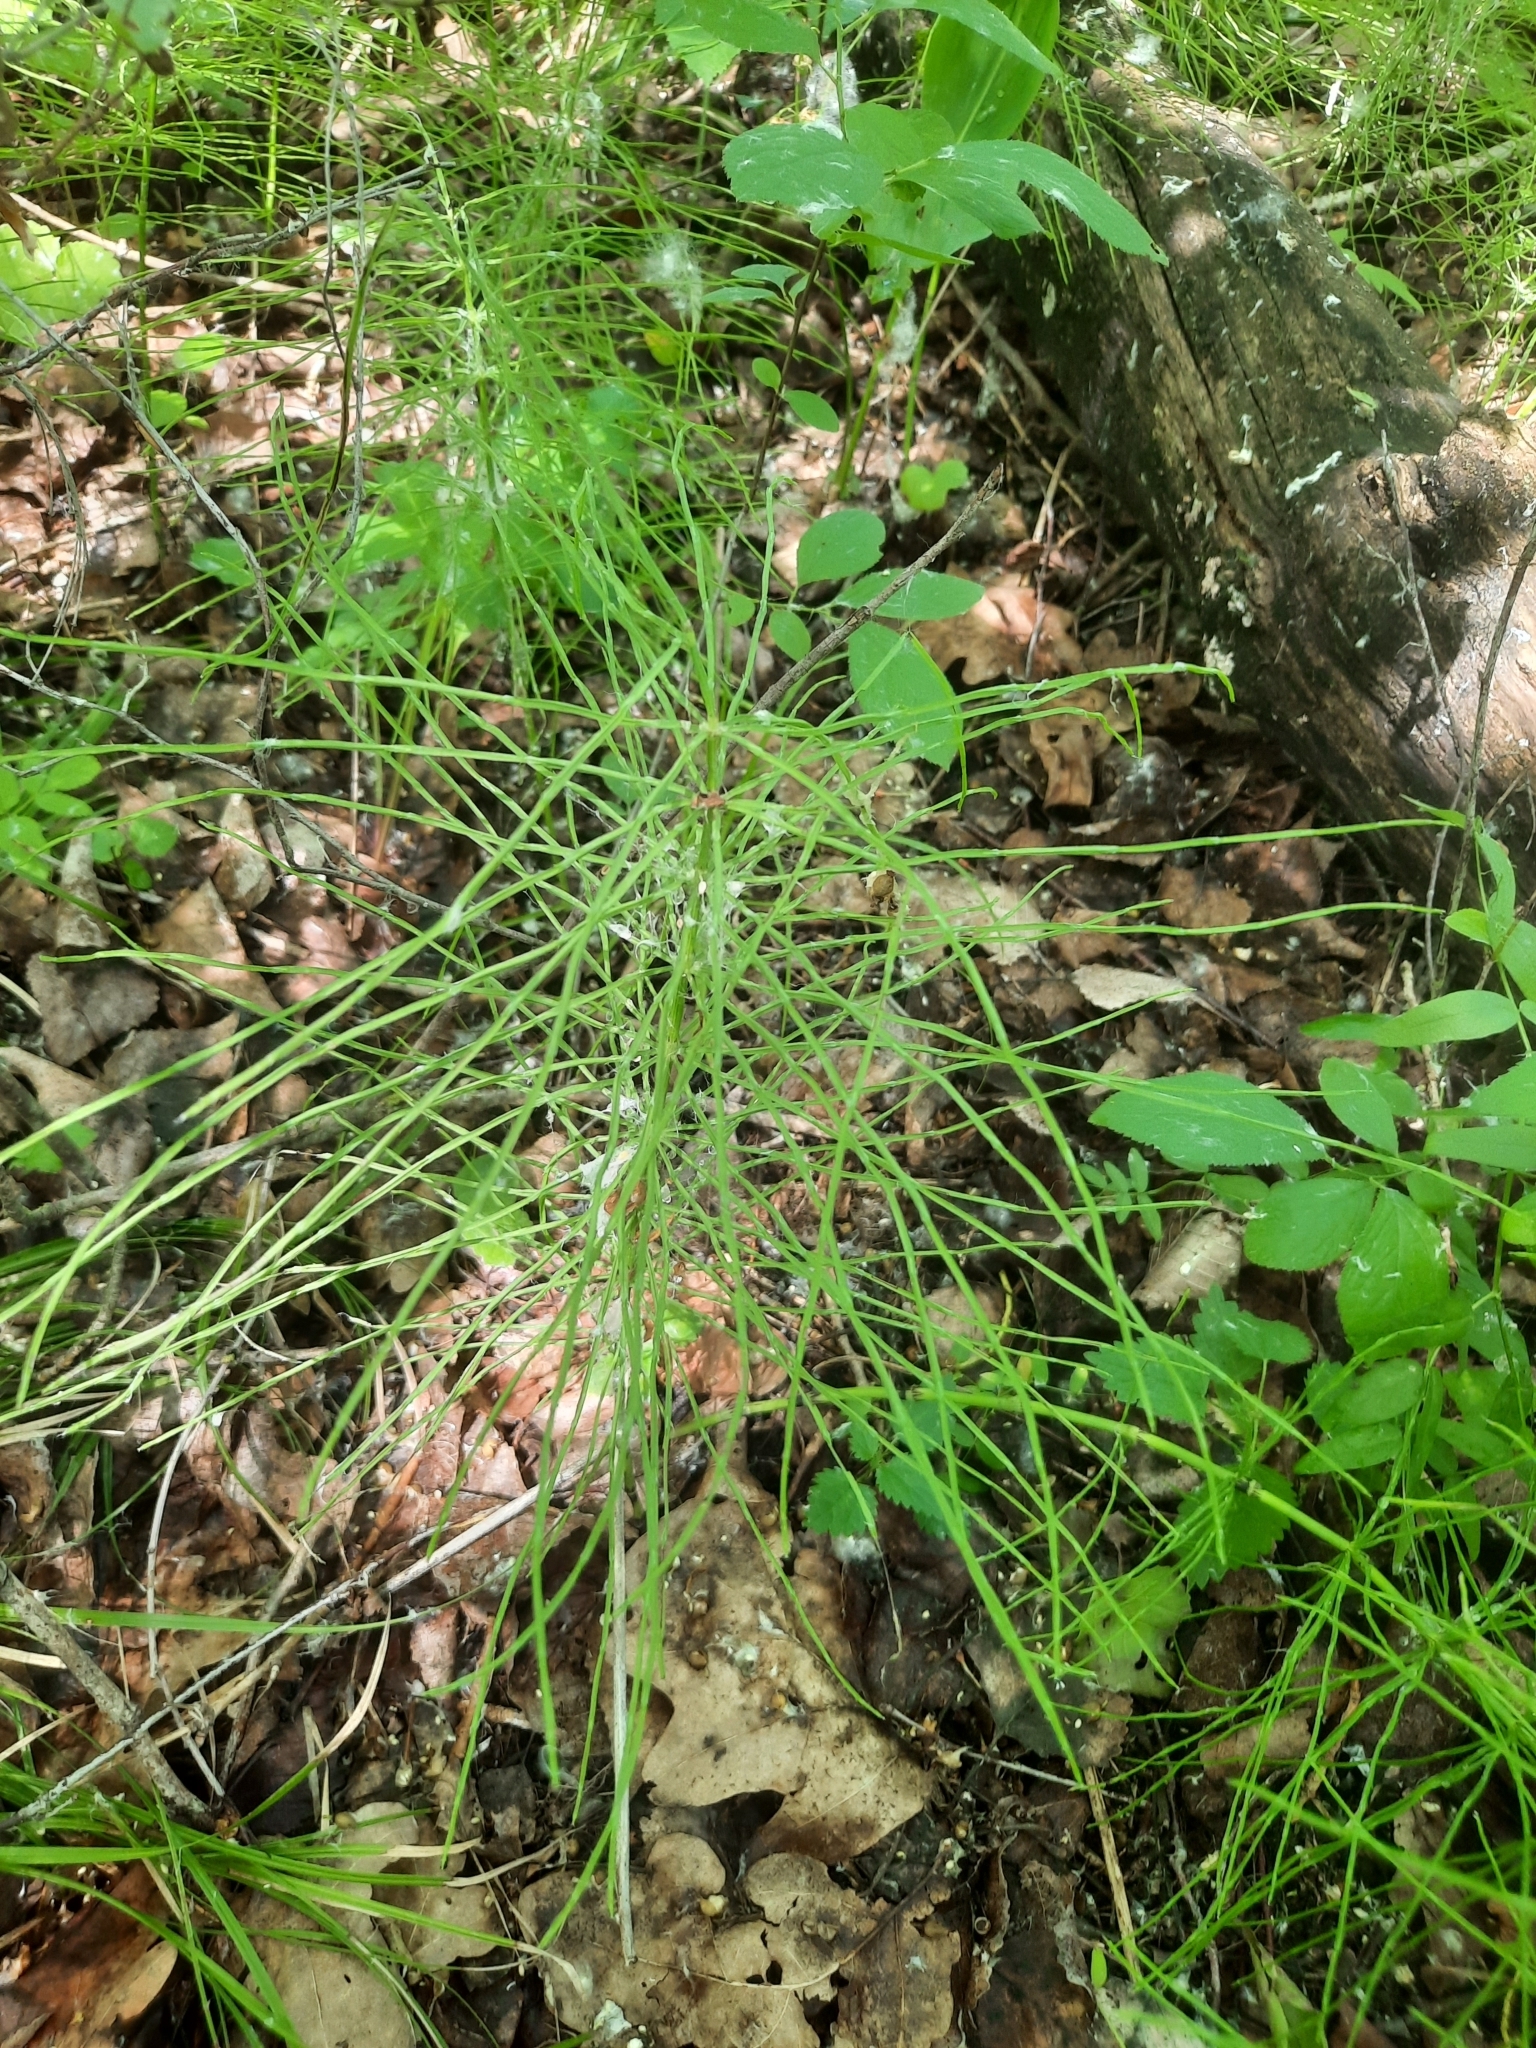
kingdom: Plantae
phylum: Tracheophyta
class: Polypodiopsida
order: Equisetales
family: Equisetaceae
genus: Equisetum
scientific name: Equisetum pratense
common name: Meadow horsetail
